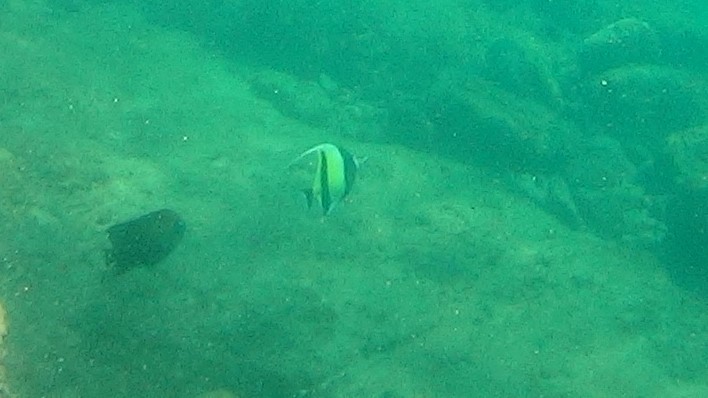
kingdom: Animalia
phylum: Chordata
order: Perciformes
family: Zanclidae
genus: Zanclus
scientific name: Zanclus cornutus
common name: Moorish idol
